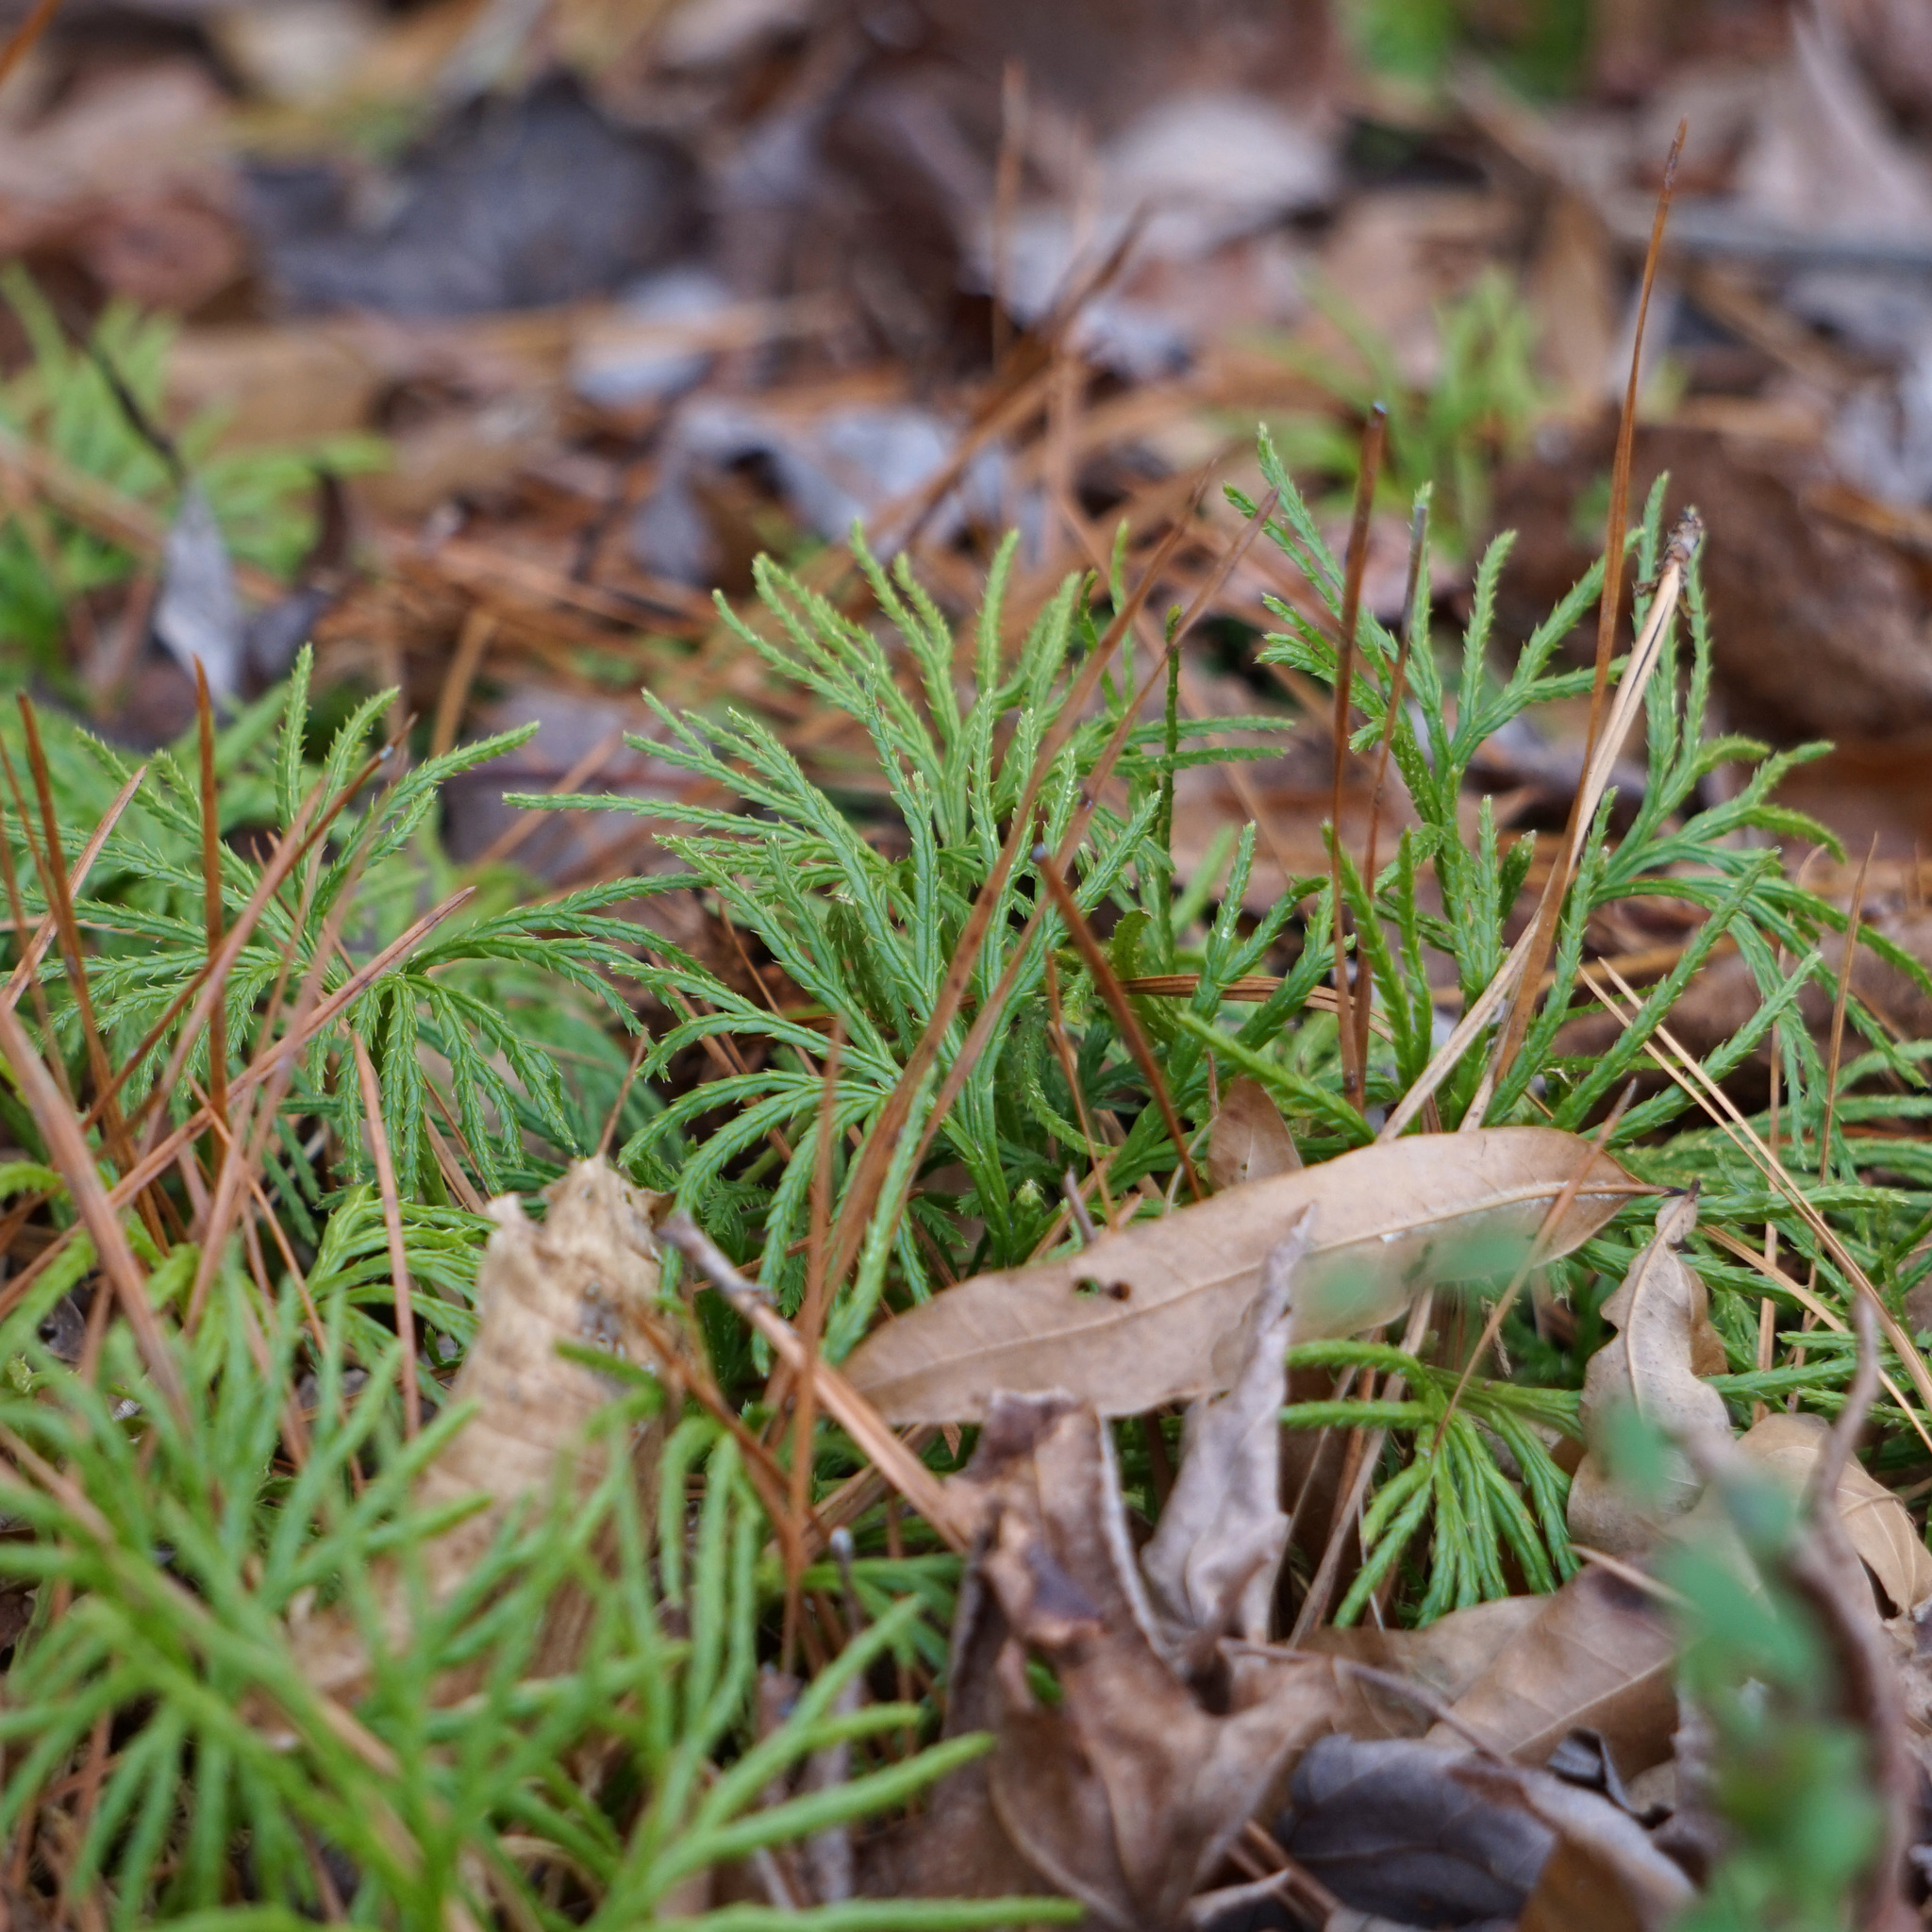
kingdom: Plantae
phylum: Tracheophyta
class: Lycopodiopsida
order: Lycopodiales
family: Lycopodiaceae
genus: Diphasiastrum
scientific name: Diphasiastrum digitatum
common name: Southern running-pine
